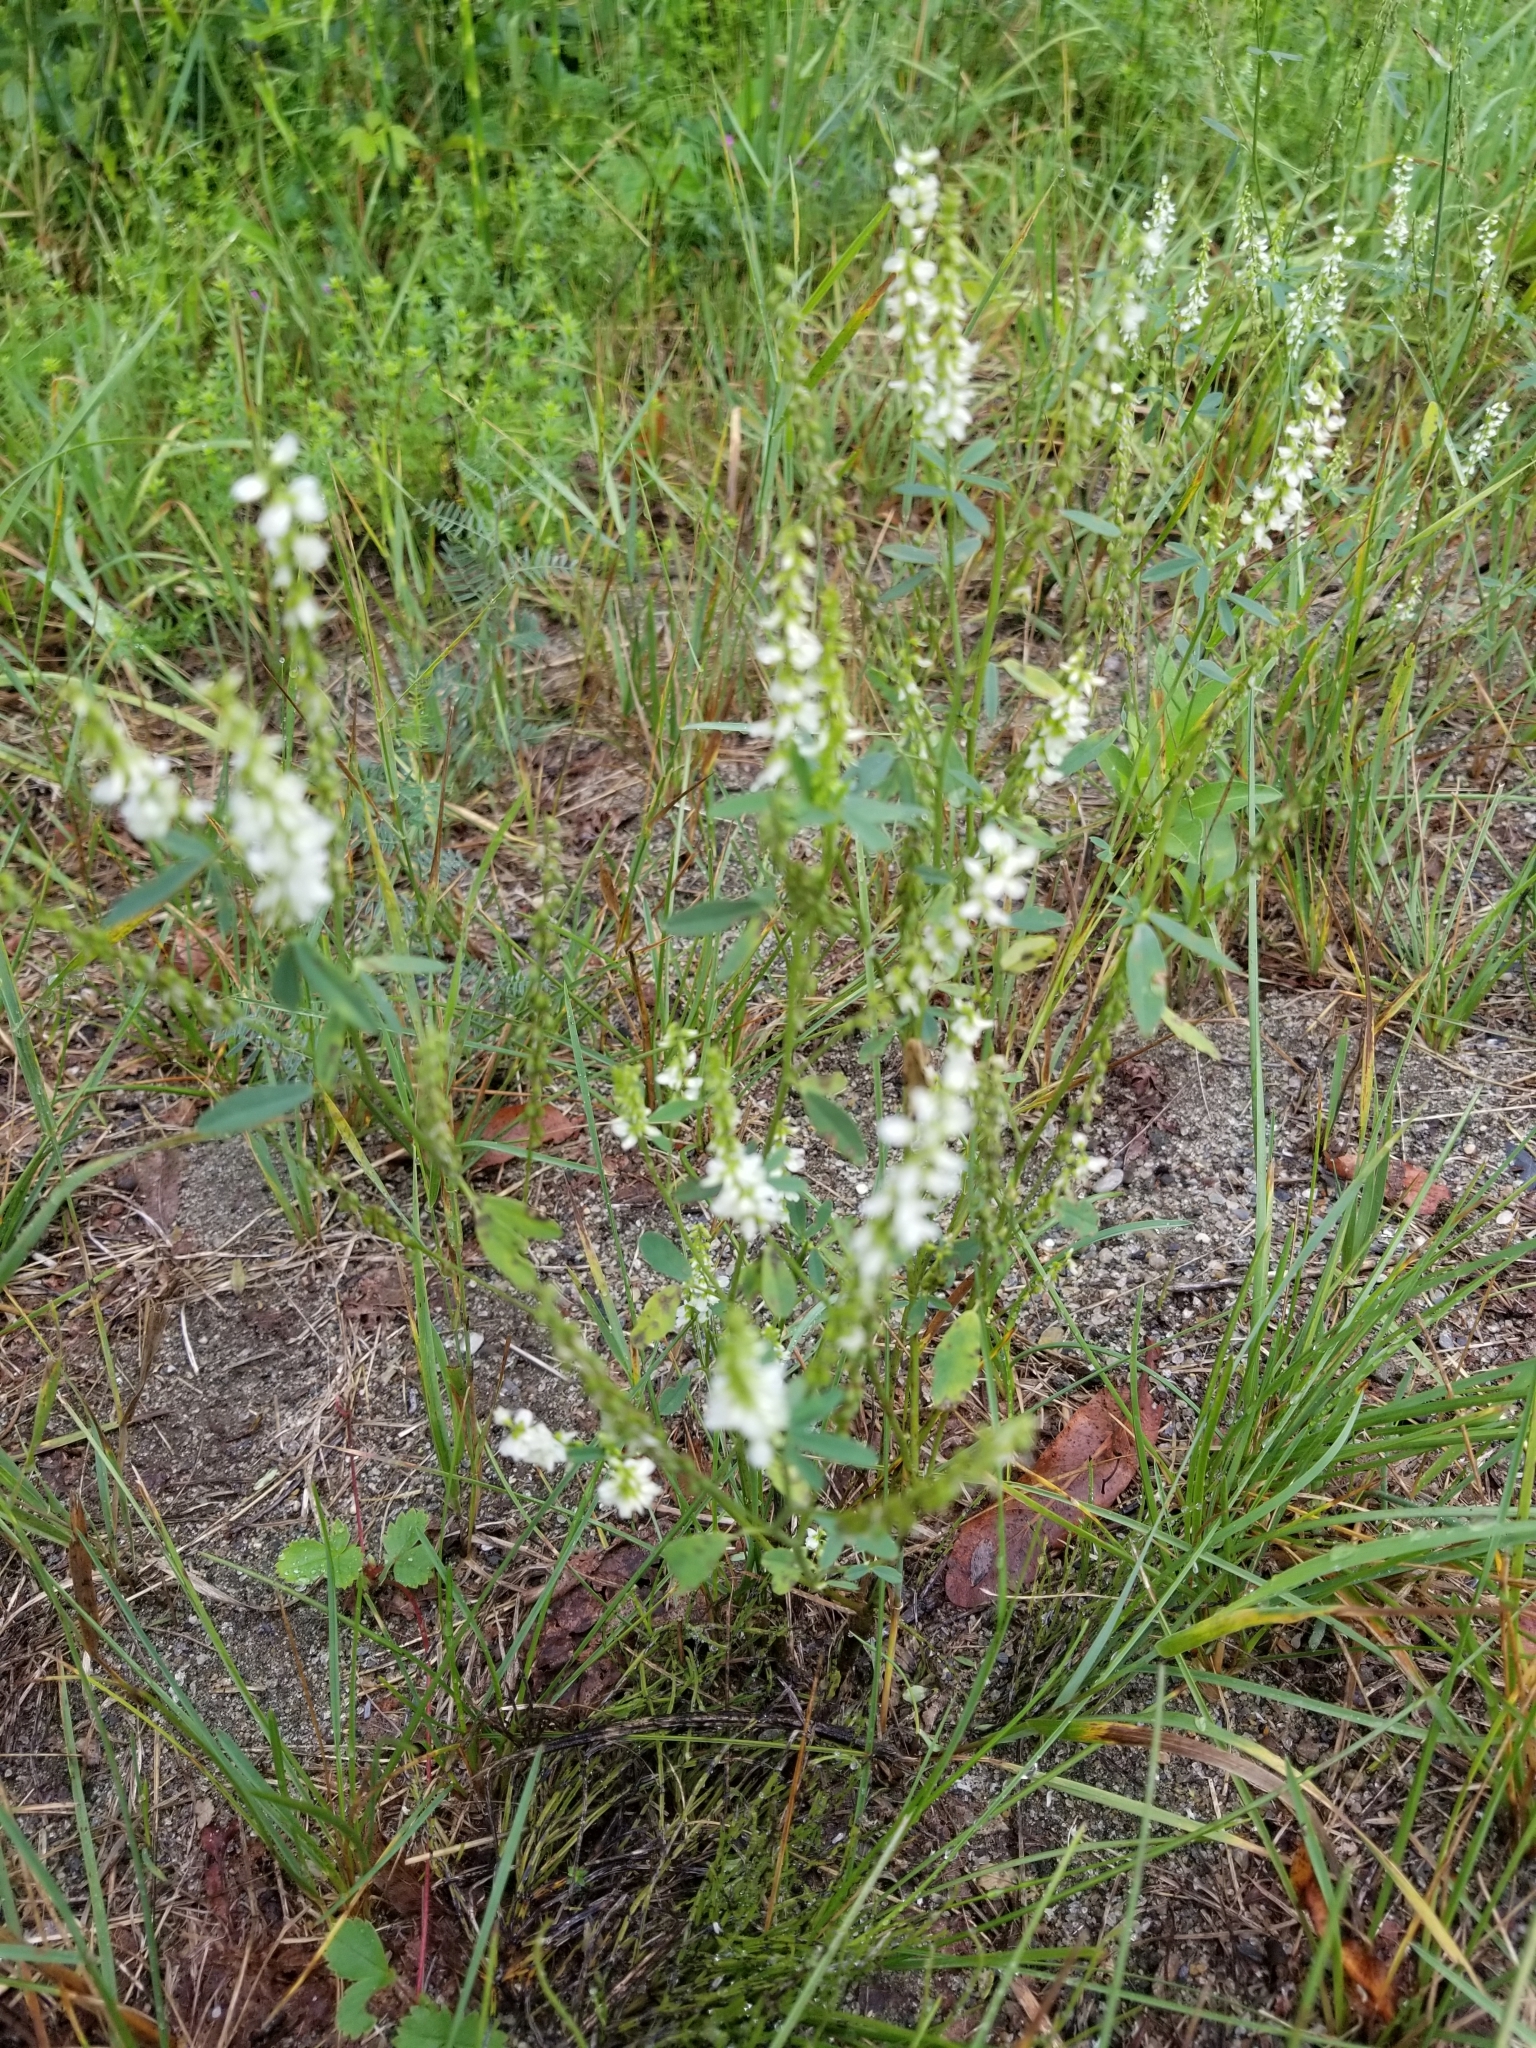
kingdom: Plantae
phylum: Tracheophyta
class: Magnoliopsida
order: Fabales
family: Fabaceae
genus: Melilotus
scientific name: Melilotus albus
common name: White melilot
